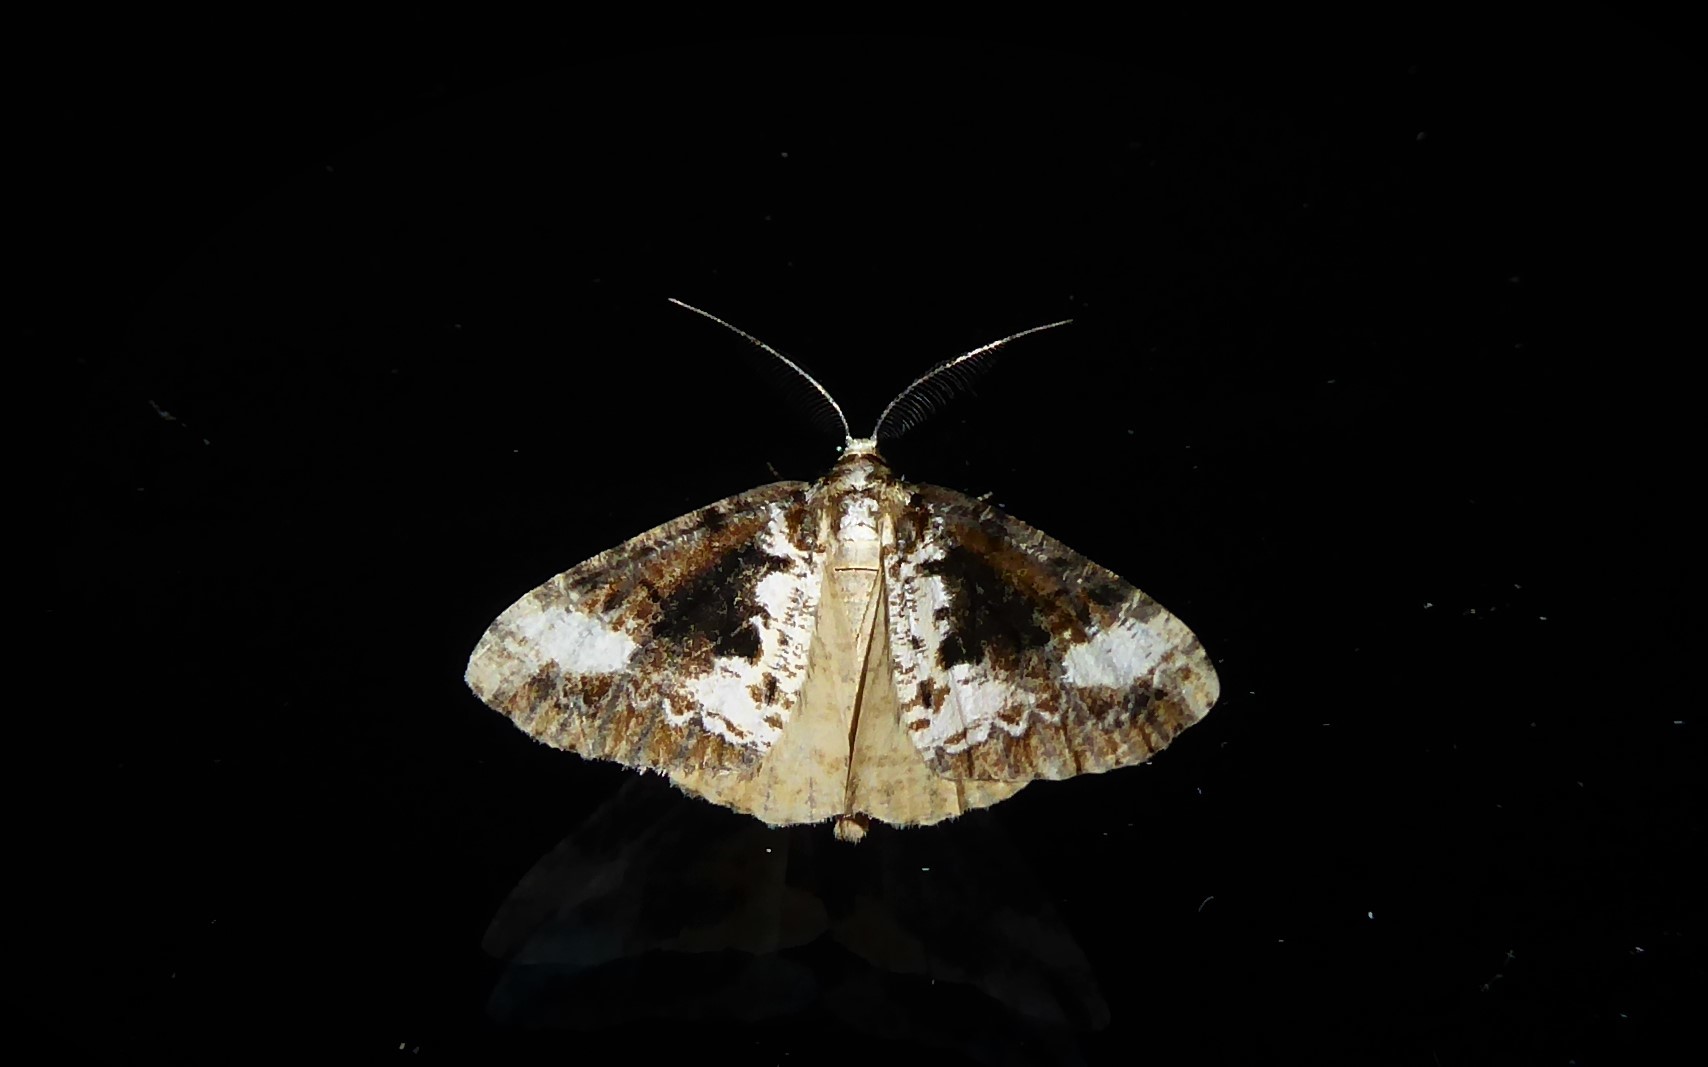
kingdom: Animalia
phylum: Arthropoda
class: Insecta
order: Lepidoptera
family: Geometridae
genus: Pseudocoremia
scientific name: Pseudocoremia leucelaea
